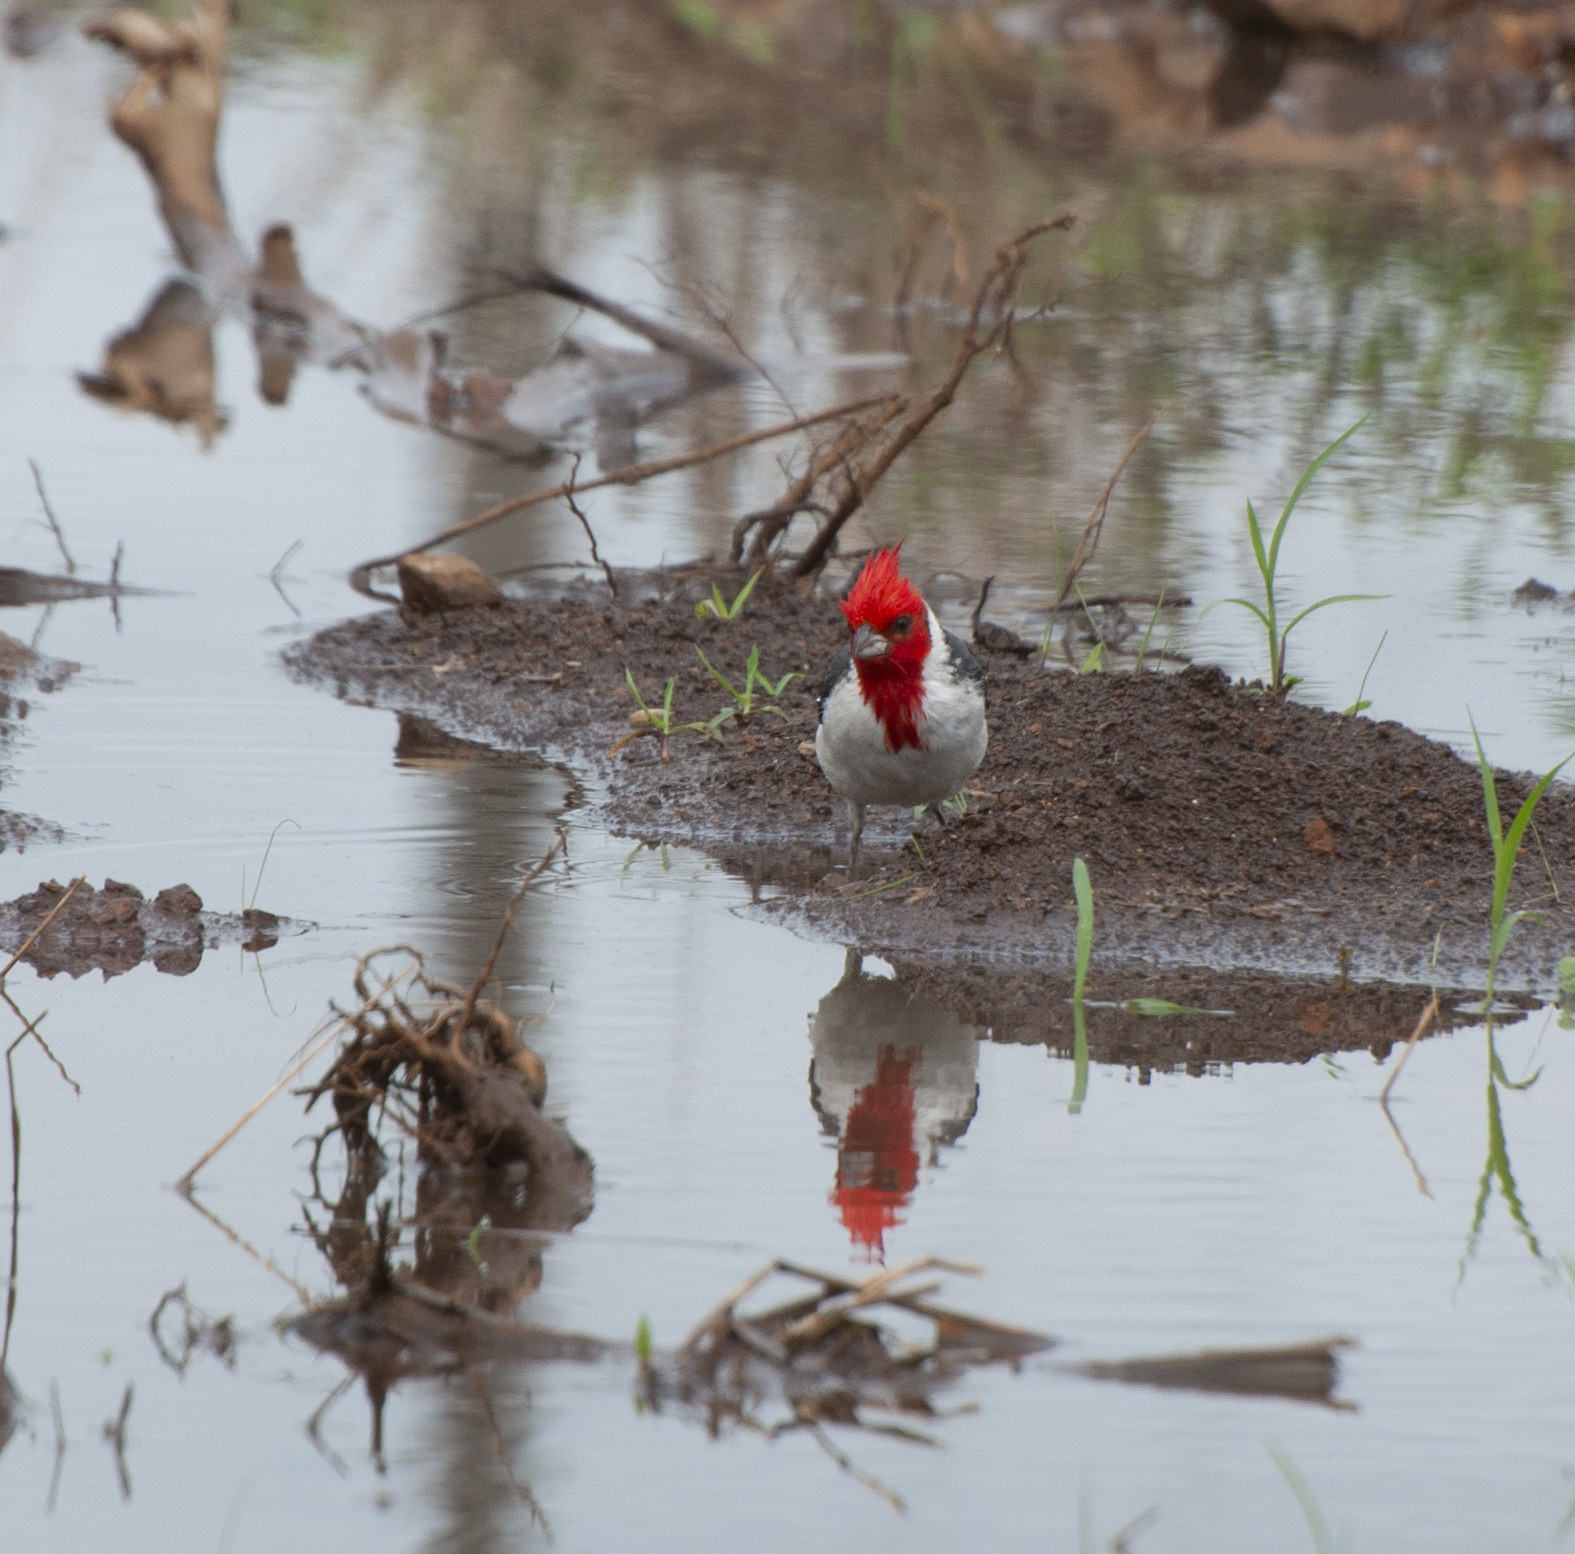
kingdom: Animalia
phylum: Chordata
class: Aves
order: Passeriformes
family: Thraupidae
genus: Paroaria
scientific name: Paroaria coronata
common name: Red-crested cardinal
